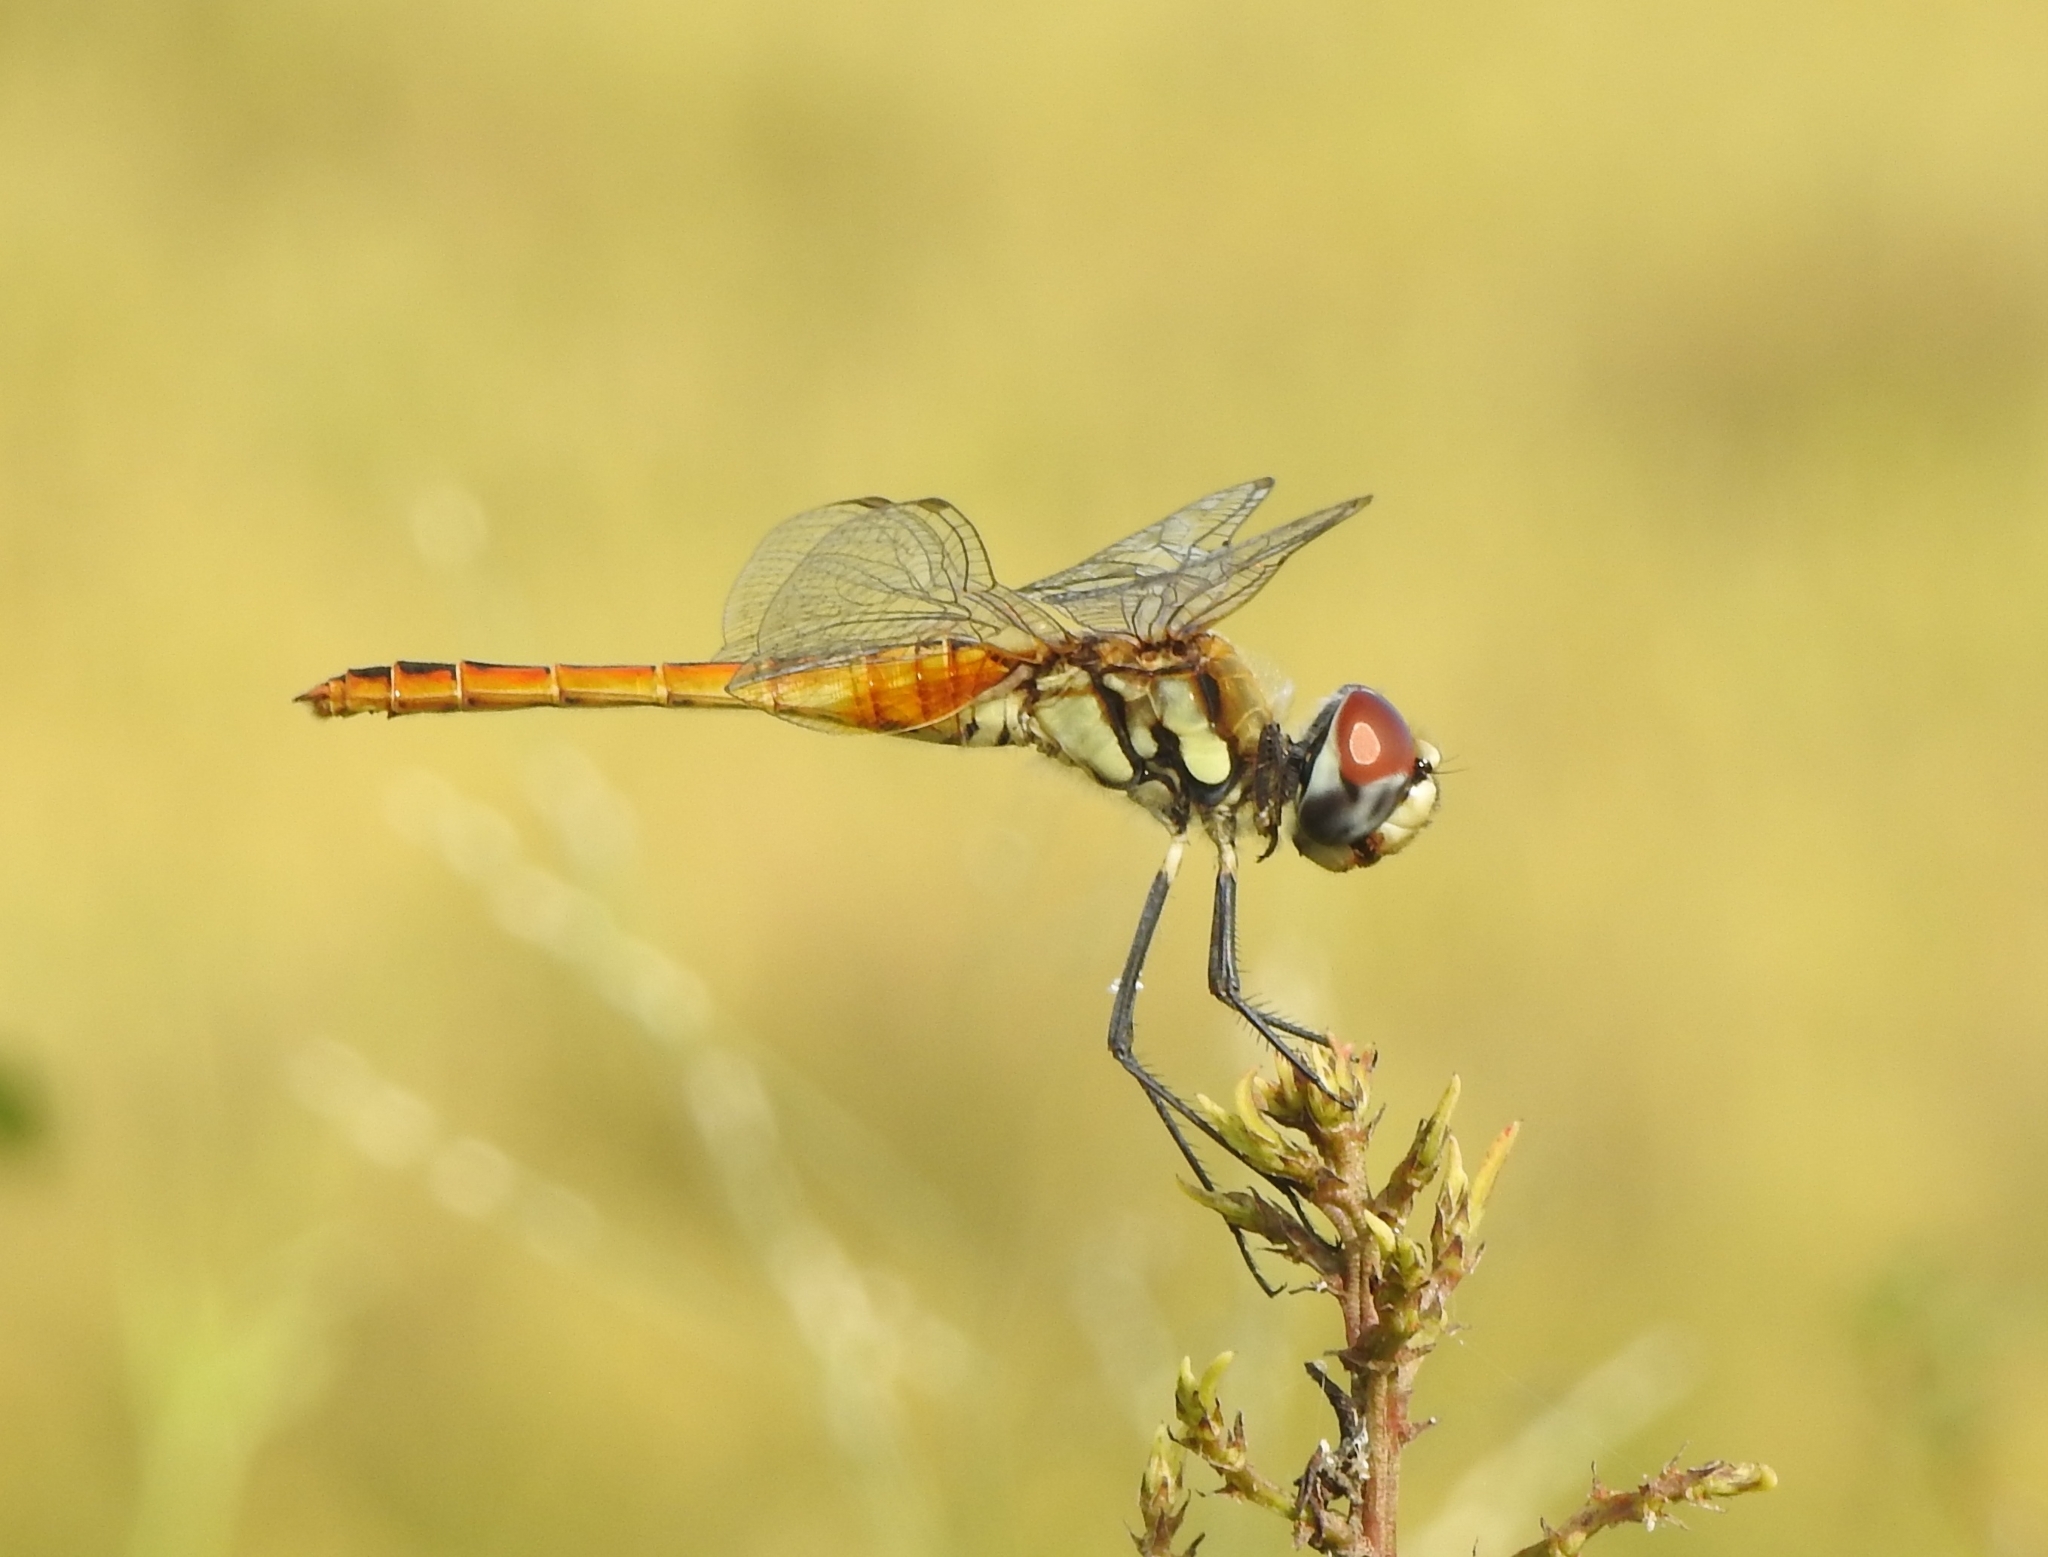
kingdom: Animalia
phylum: Arthropoda
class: Insecta
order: Odonata
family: Libellulidae
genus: Macrodiplax
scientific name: Macrodiplax cora
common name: Coastal glider
